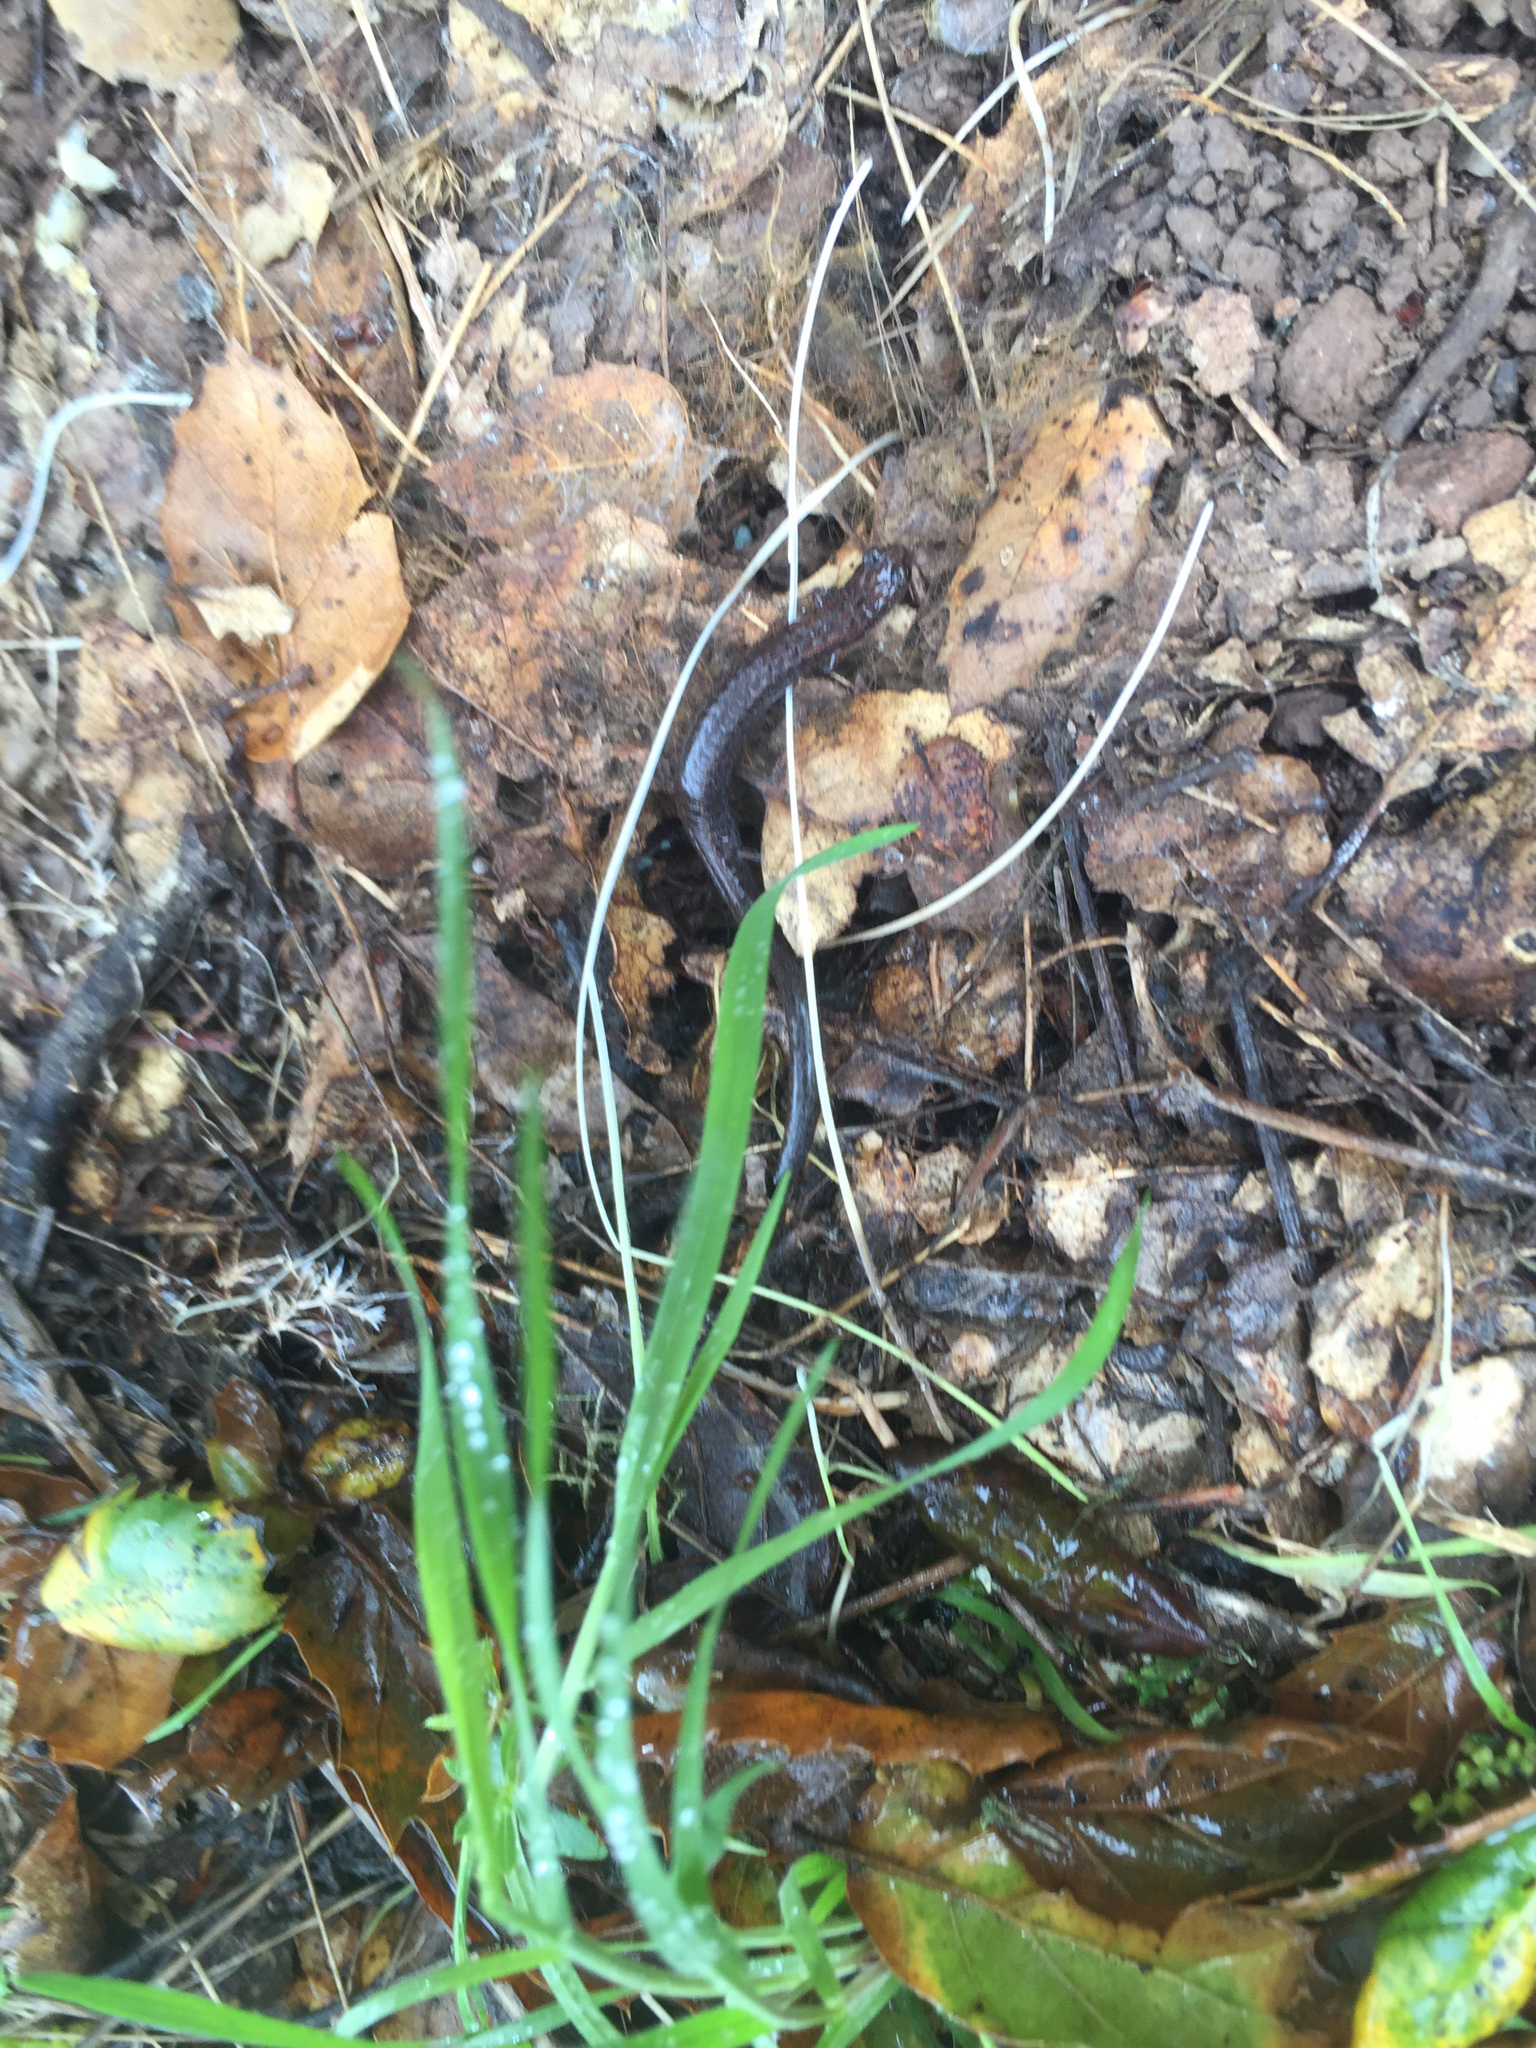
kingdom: Animalia
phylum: Chordata
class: Amphibia
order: Caudata
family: Plethodontidae
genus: Batrachoseps
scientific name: Batrachoseps attenuatus
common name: California slender salamander
